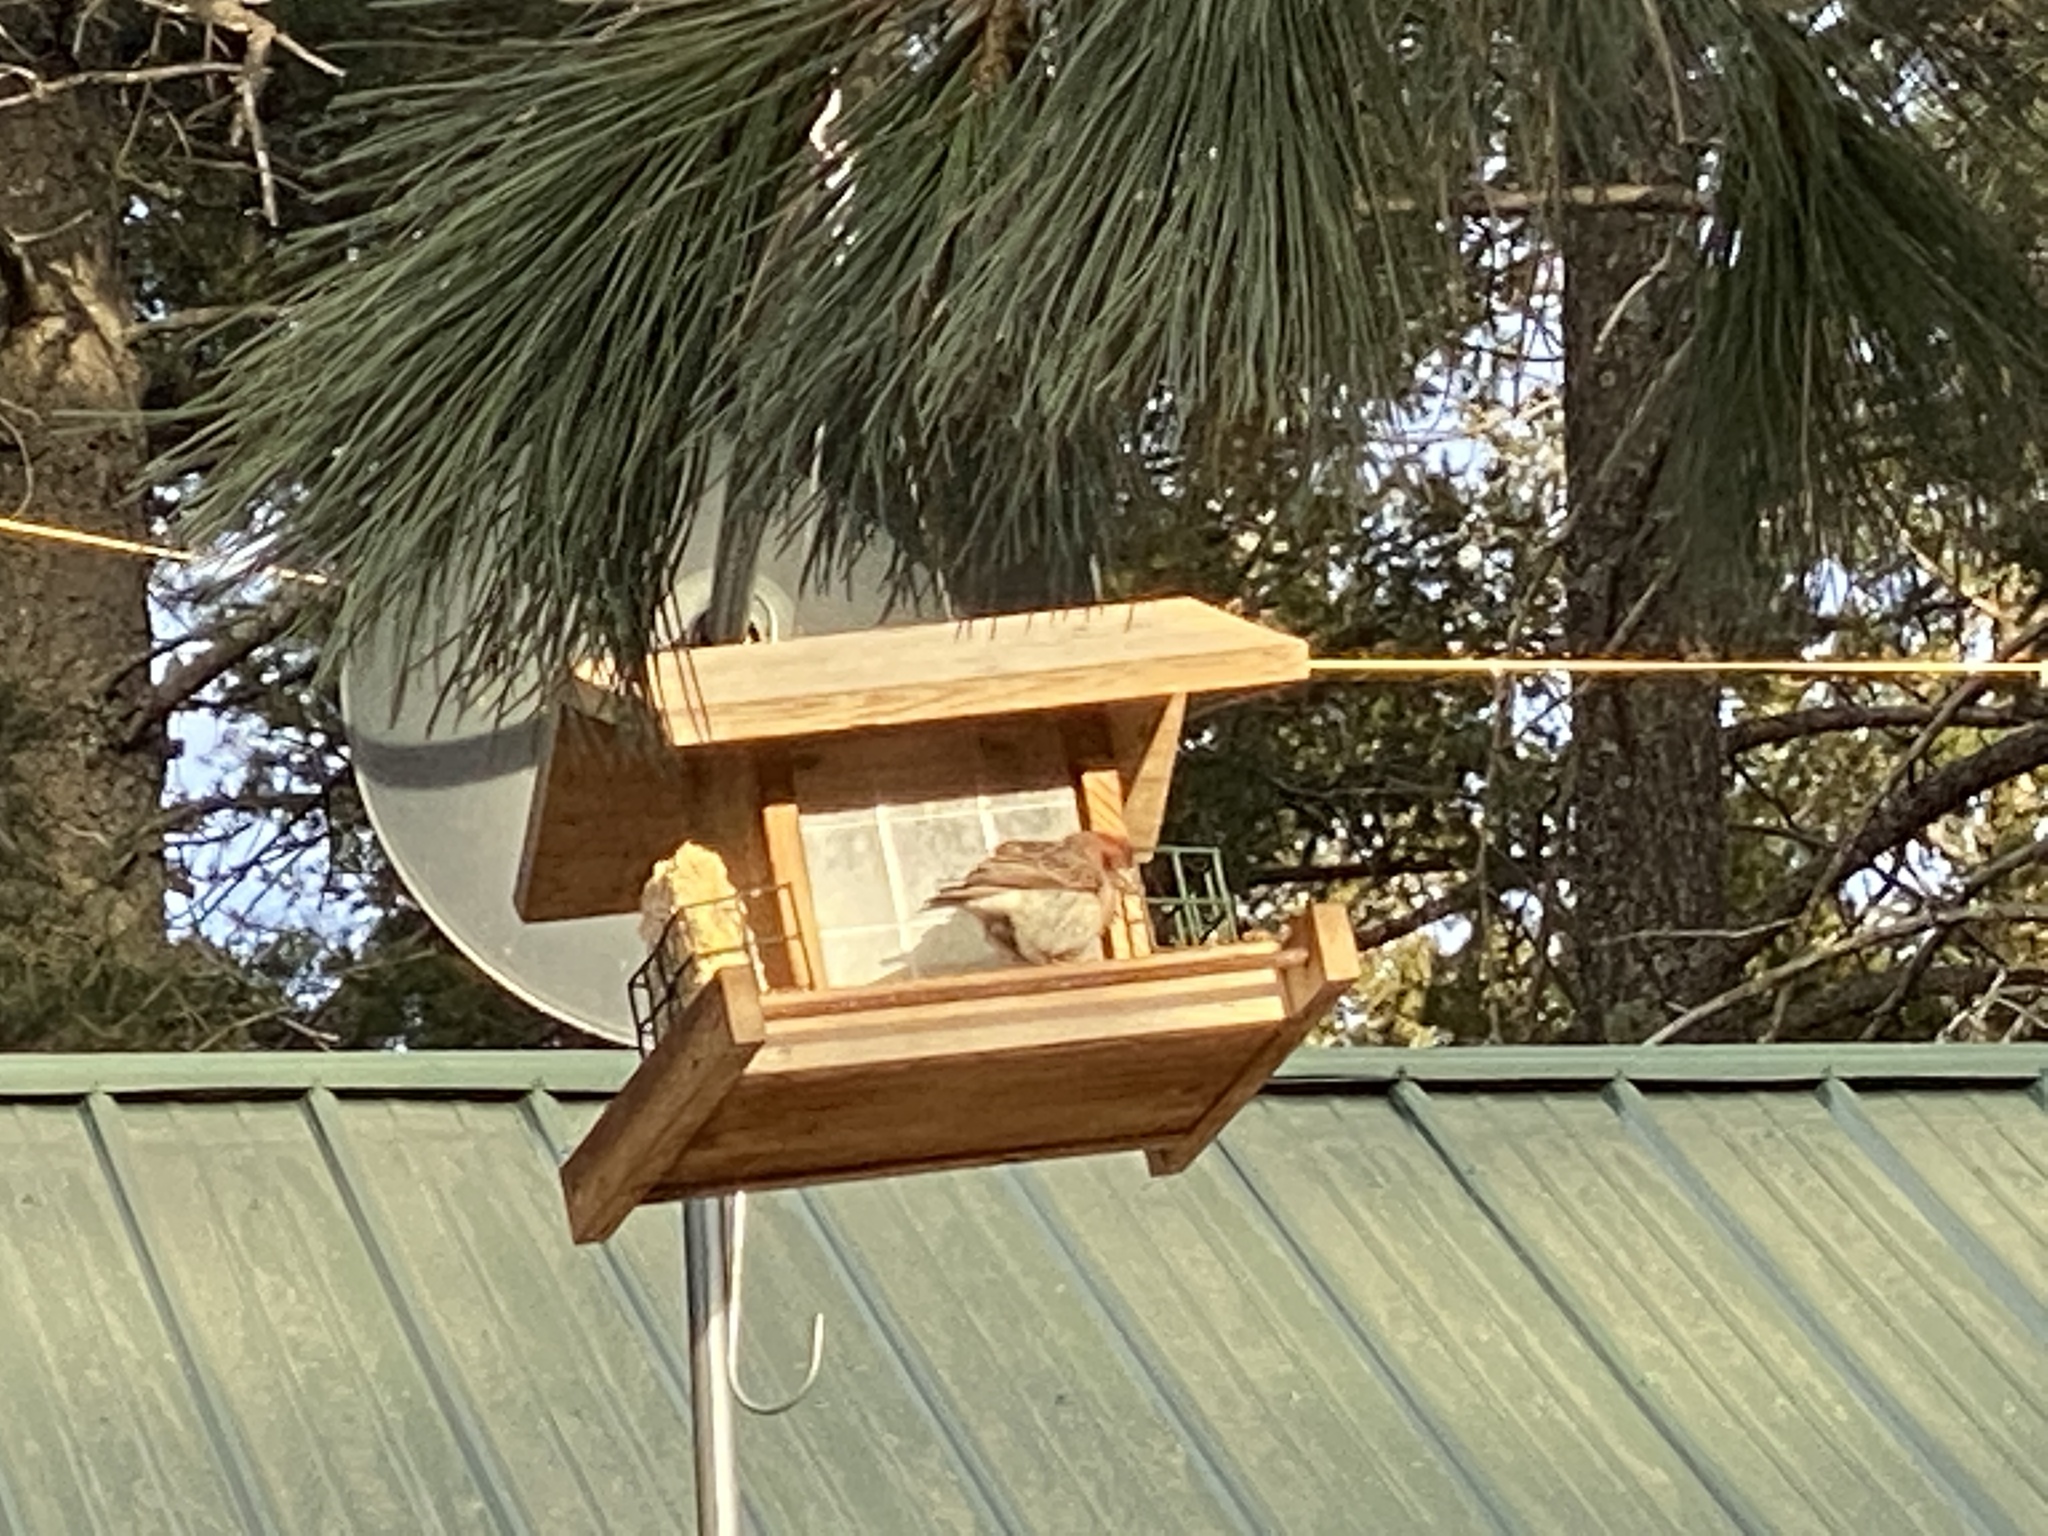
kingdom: Animalia
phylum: Chordata
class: Aves
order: Passeriformes
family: Fringillidae
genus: Haemorhous
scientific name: Haemorhous cassinii
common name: Cassin's finch
